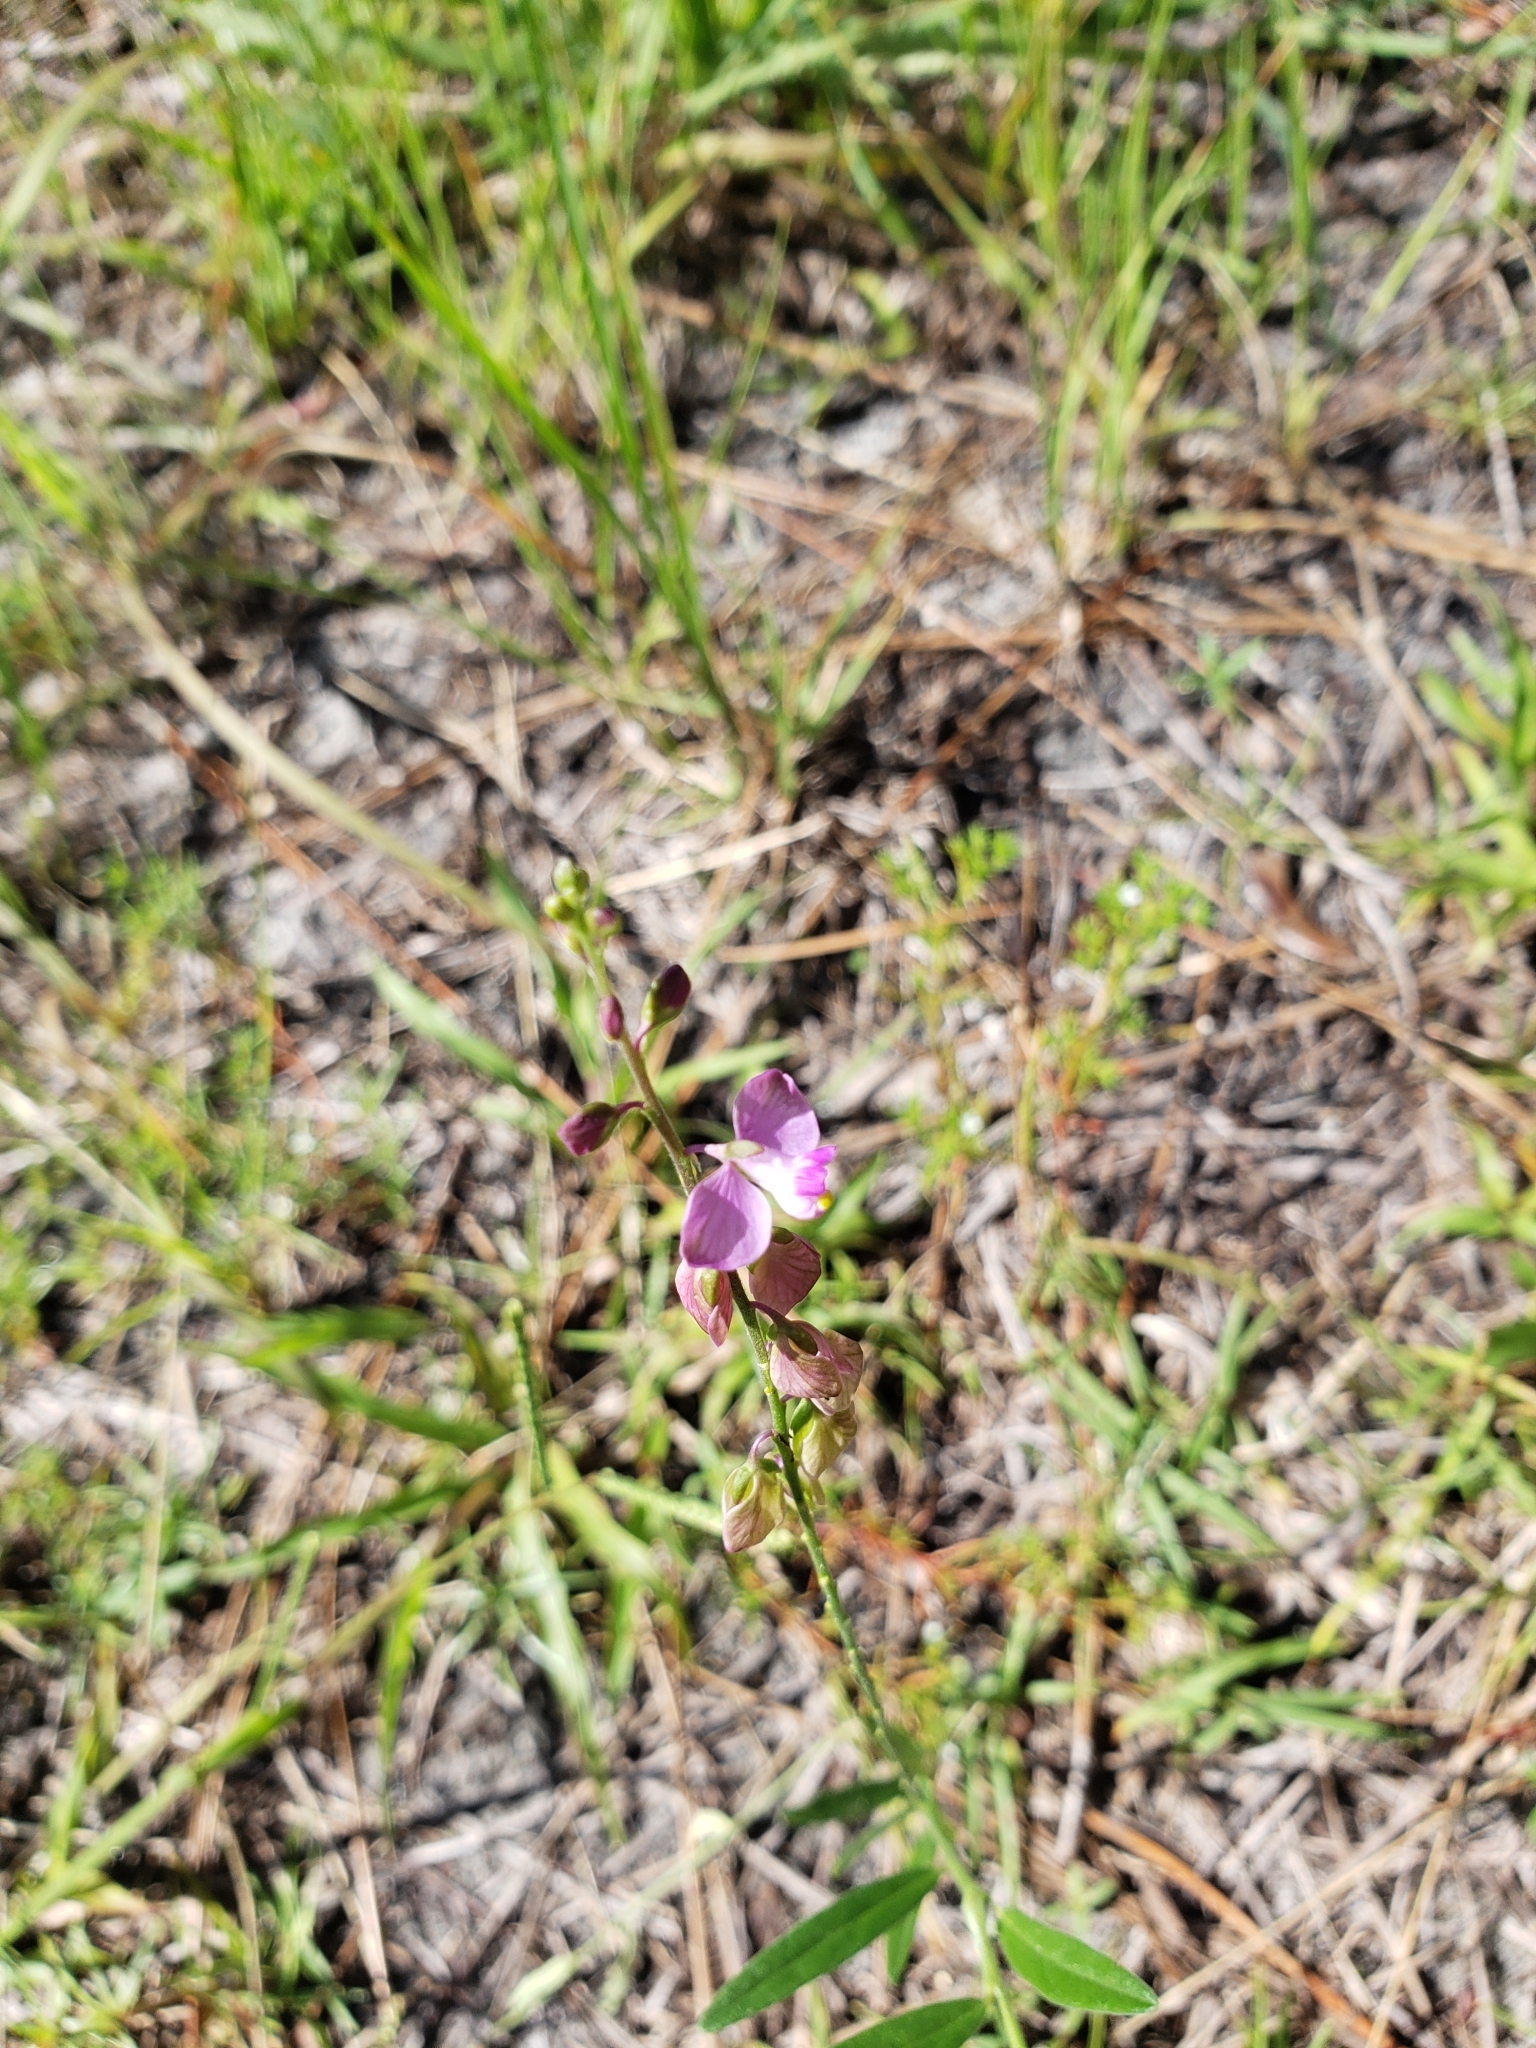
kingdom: Plantae
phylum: Tracheophyta
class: Magnoliopsida
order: Fabales
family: Polygalaceae
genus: Asemeia
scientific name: Asemeia grandiflora
